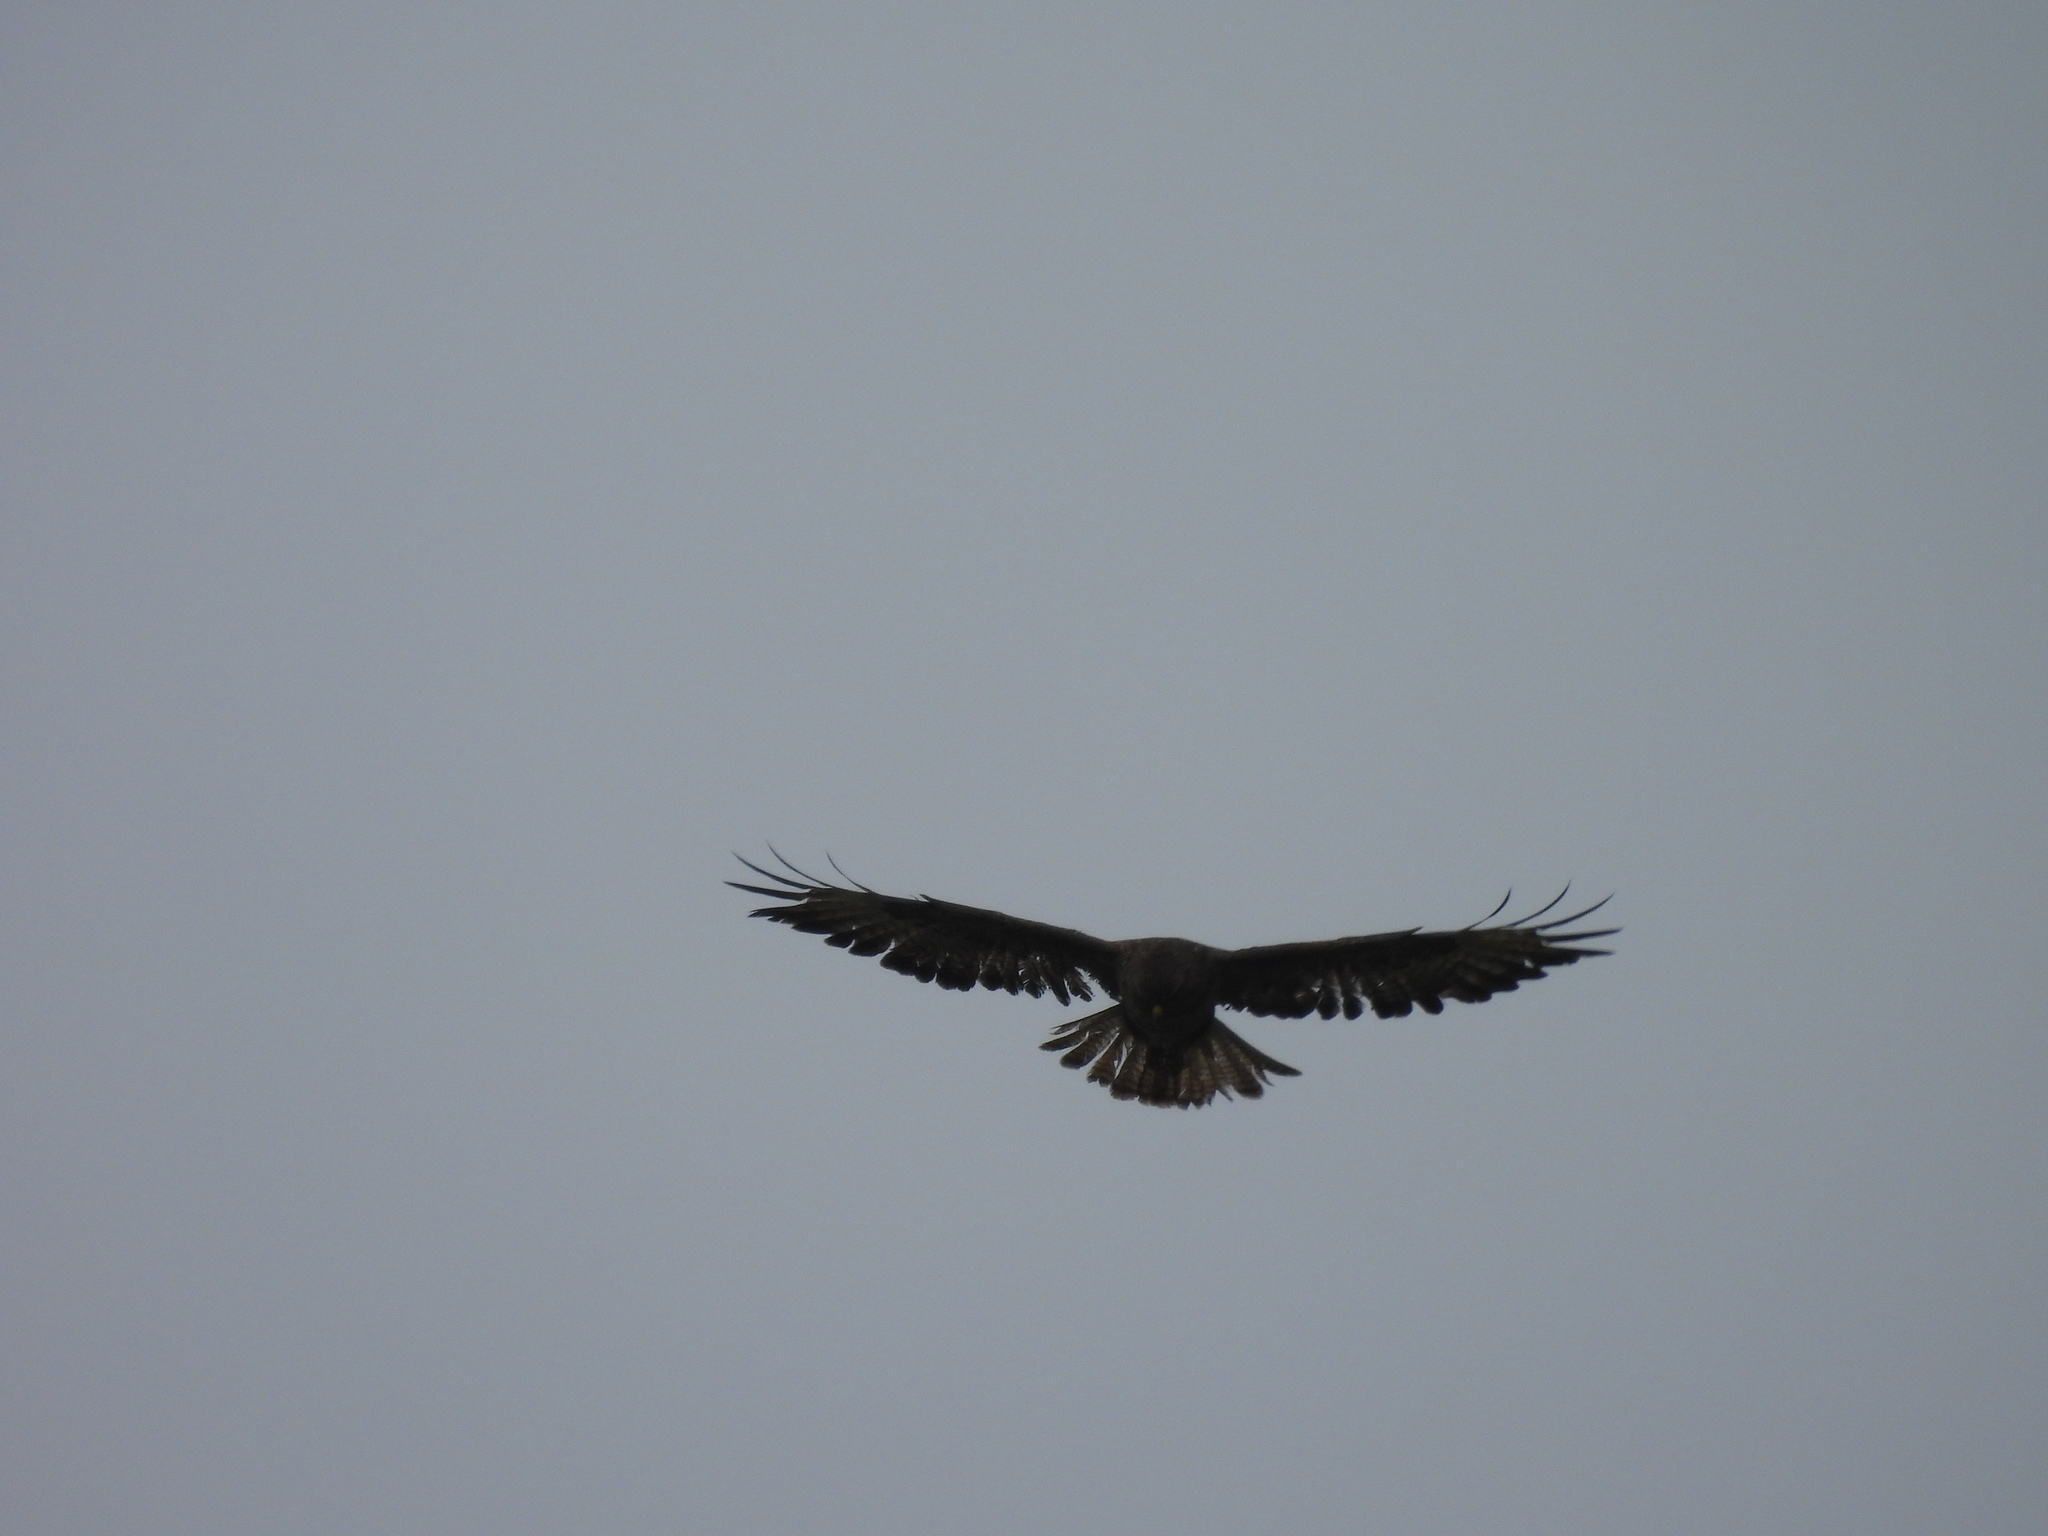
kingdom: Animalia
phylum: Chordata
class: Aves
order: Accipitriformes
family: Accipitridae
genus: Buteo
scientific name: Buteo buteo
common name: Common buzzard
